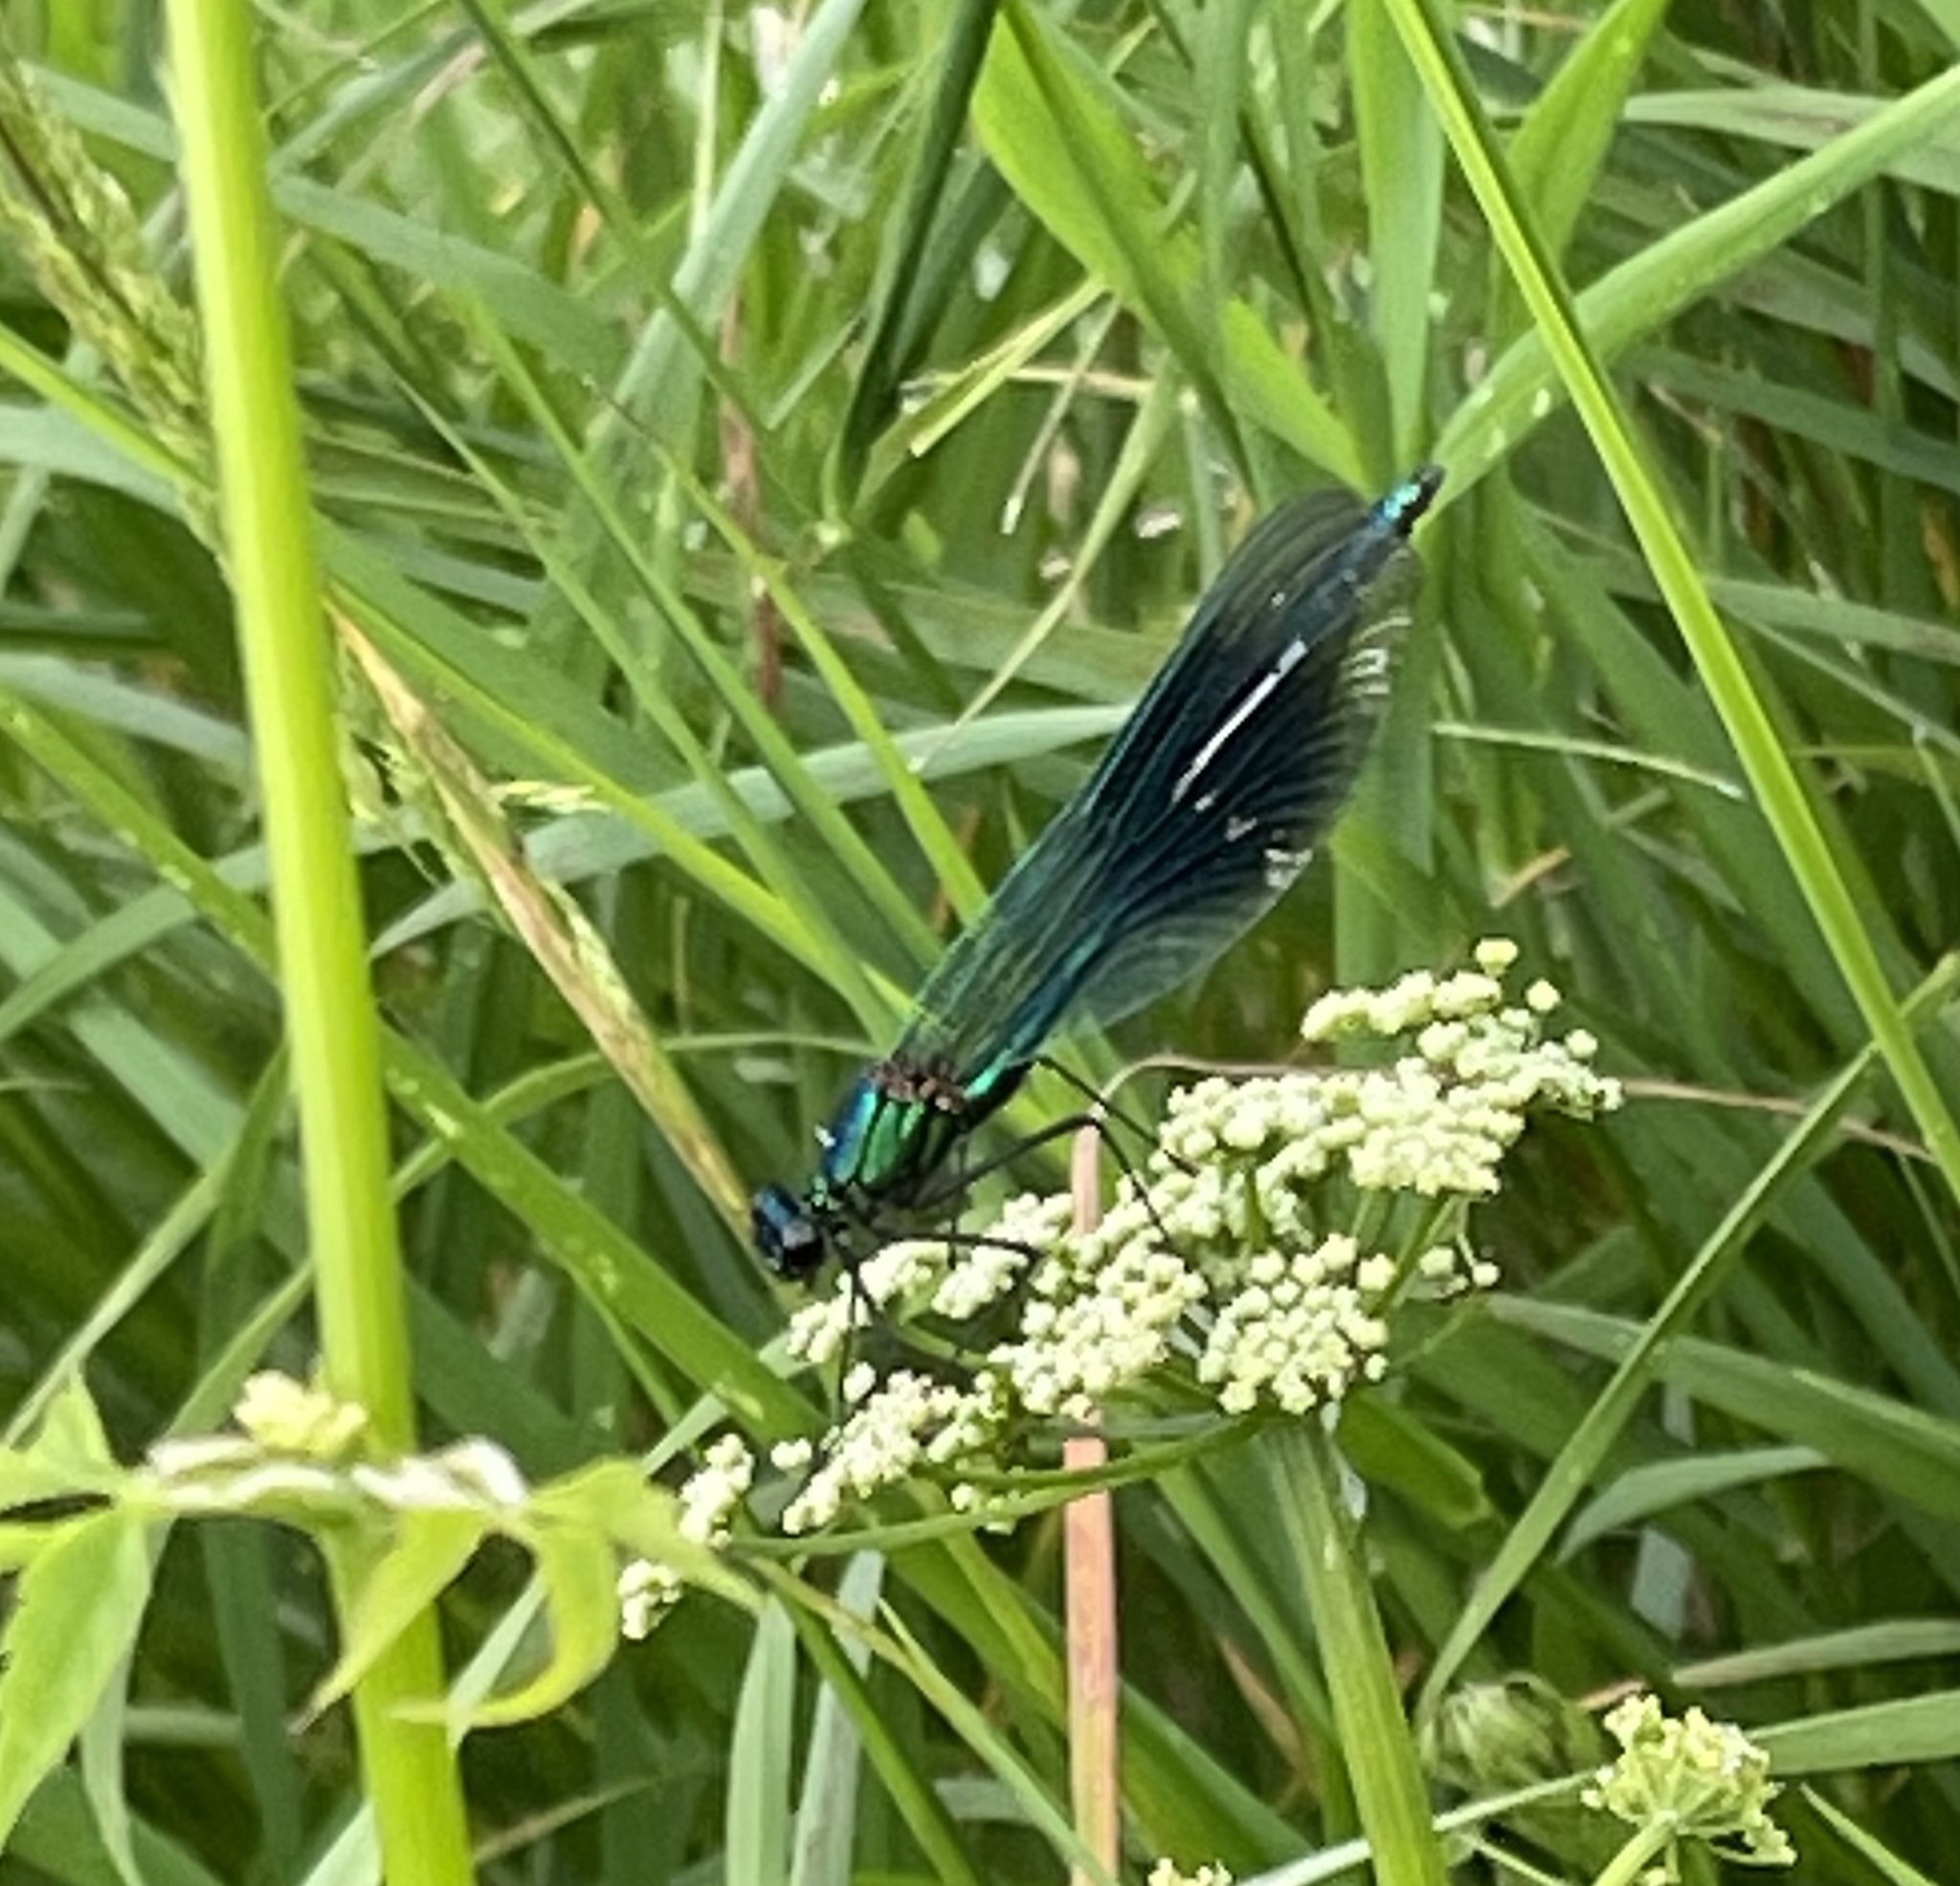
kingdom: Animalia
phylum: Arthropoda
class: Insecta
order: Odonata
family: Calopterygidae
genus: Calopteryx
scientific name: Calopteryx splendens
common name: Banded demoiselle
